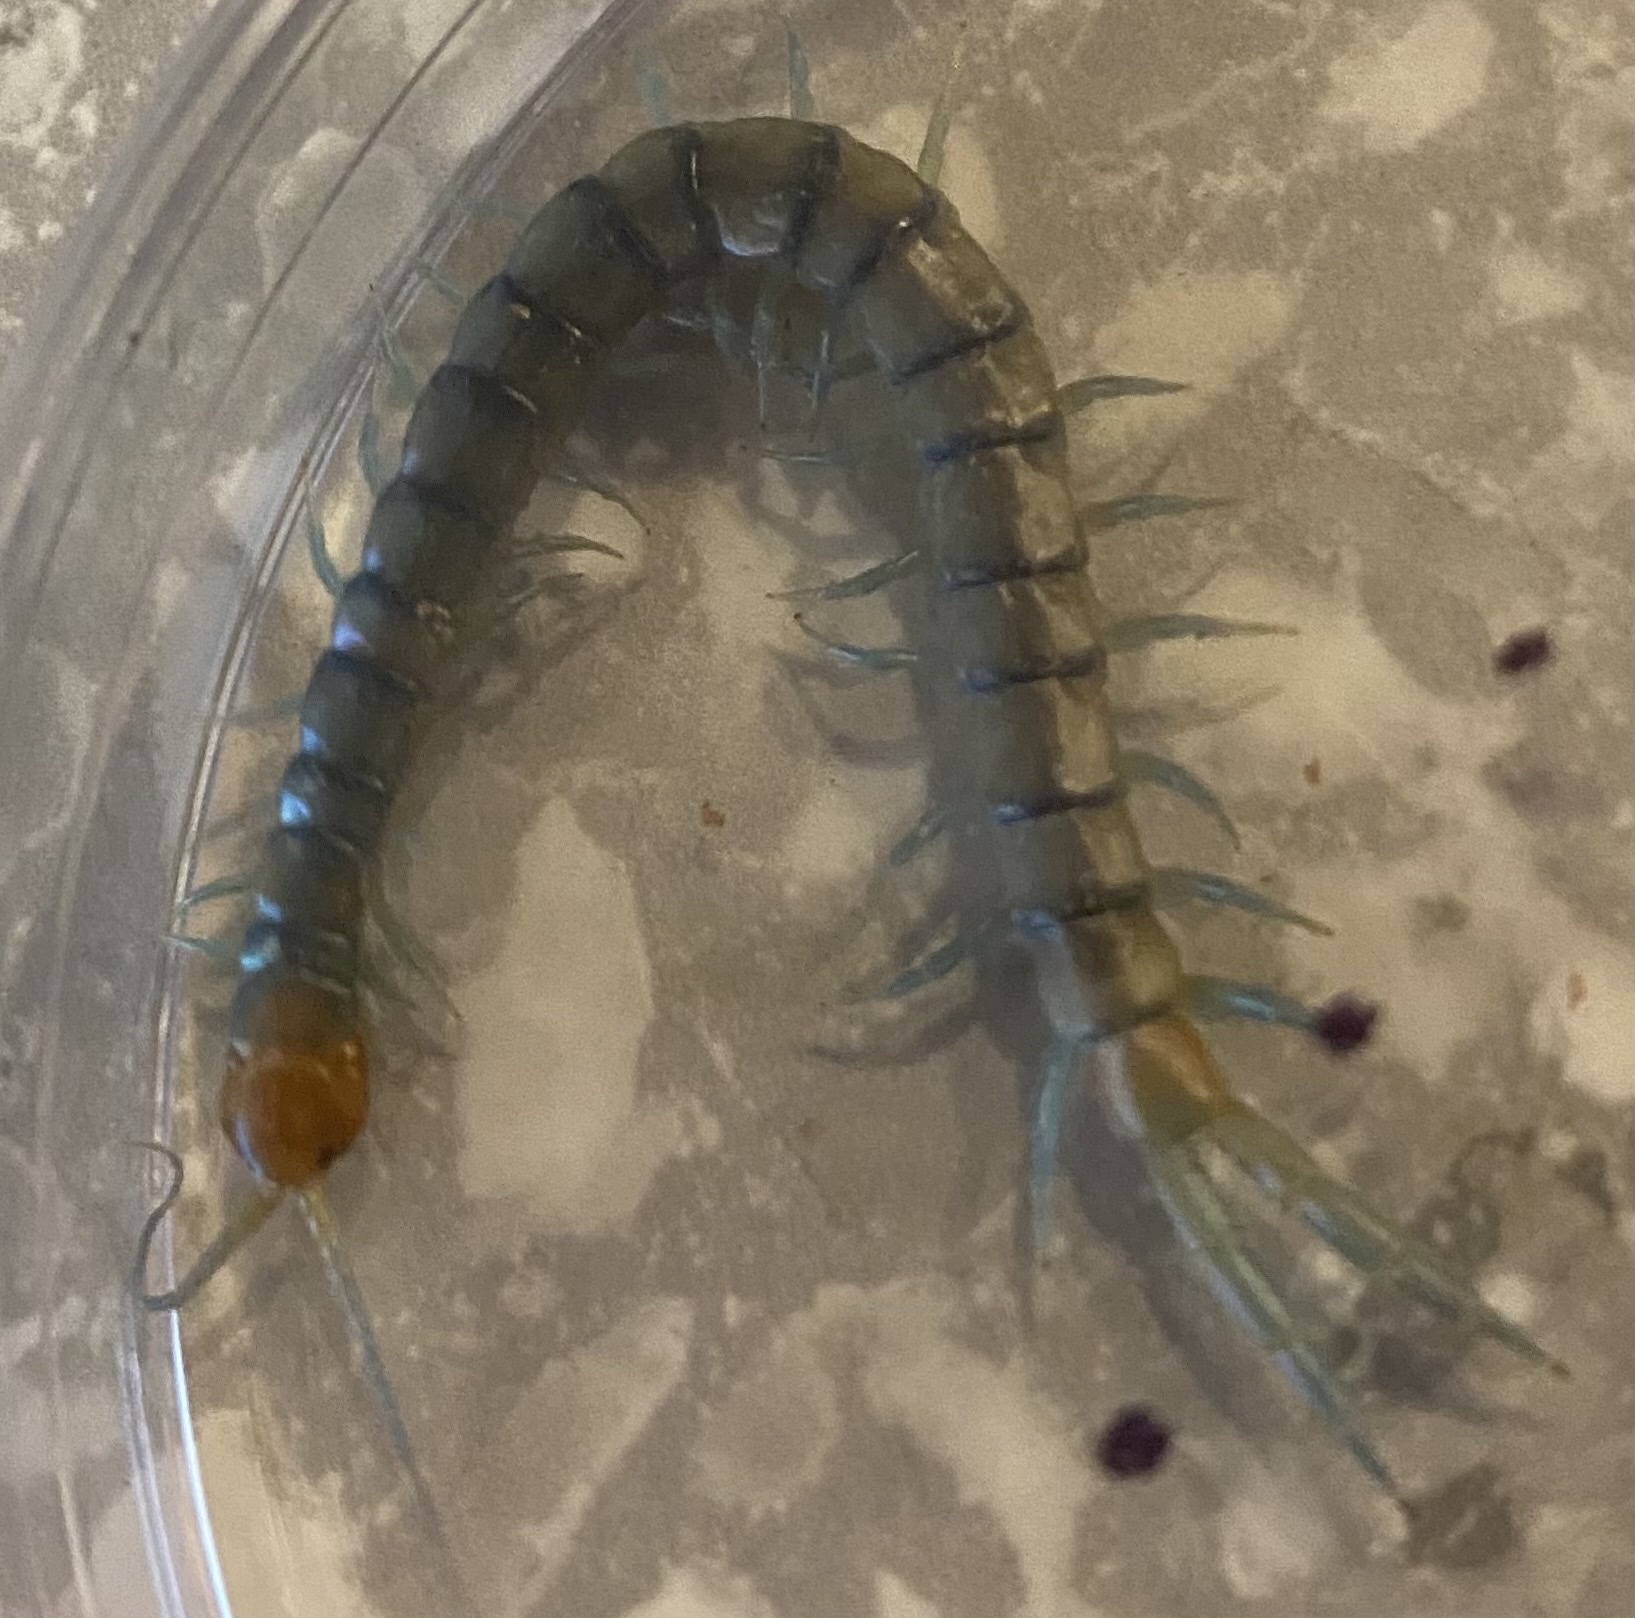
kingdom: Animalia
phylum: Arthropoda
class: Chilopoda
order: Scolopendromorpha
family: Scolopendridae
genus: Scolopendra
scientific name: Scolopendra polymorpha
